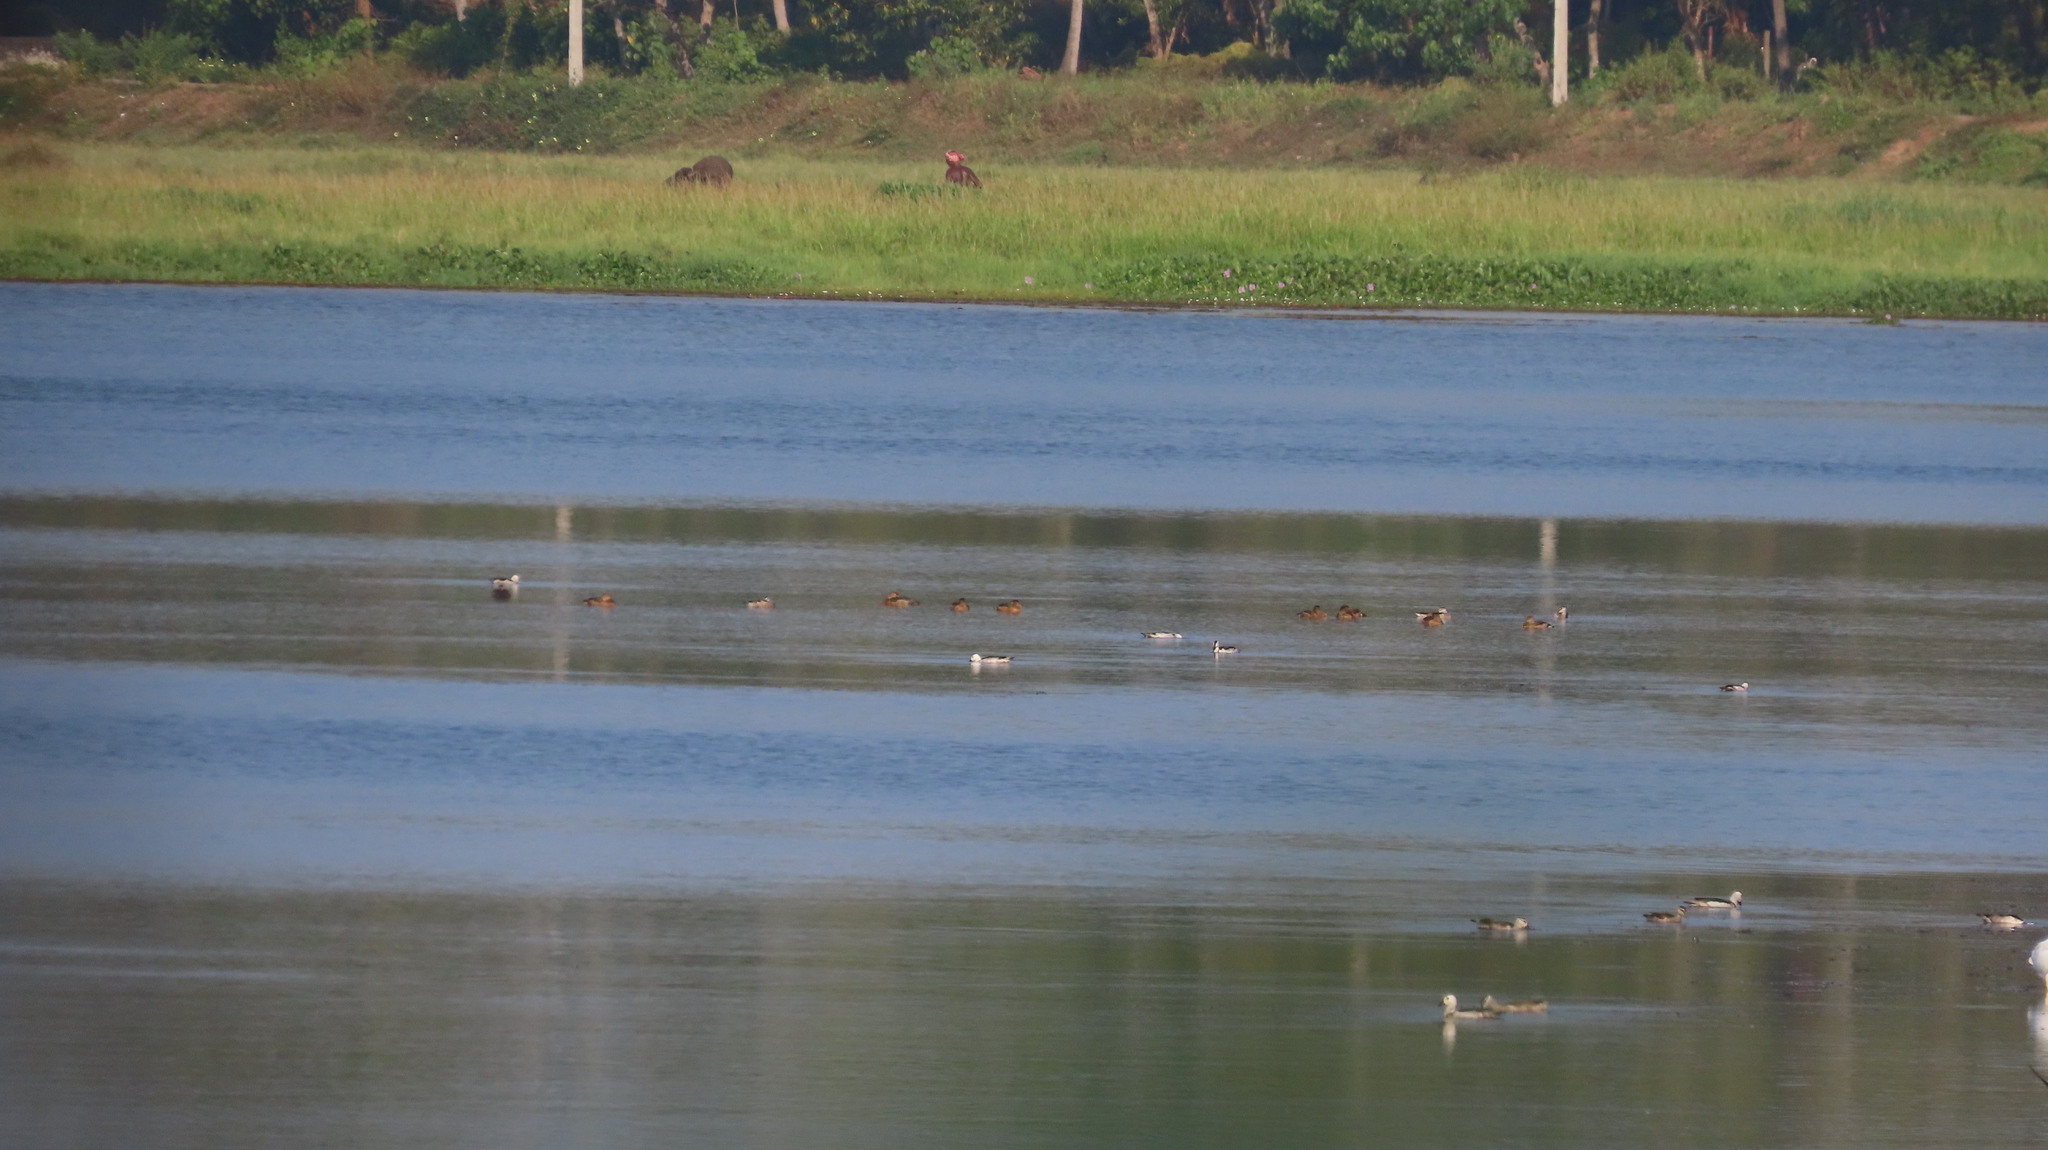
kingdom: Animalia
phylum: Chordata
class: Aves
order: Anseriformes
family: Anatidae
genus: Nettapus
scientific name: Nettapus coromandelianus
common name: Cotton pygmy-goose
